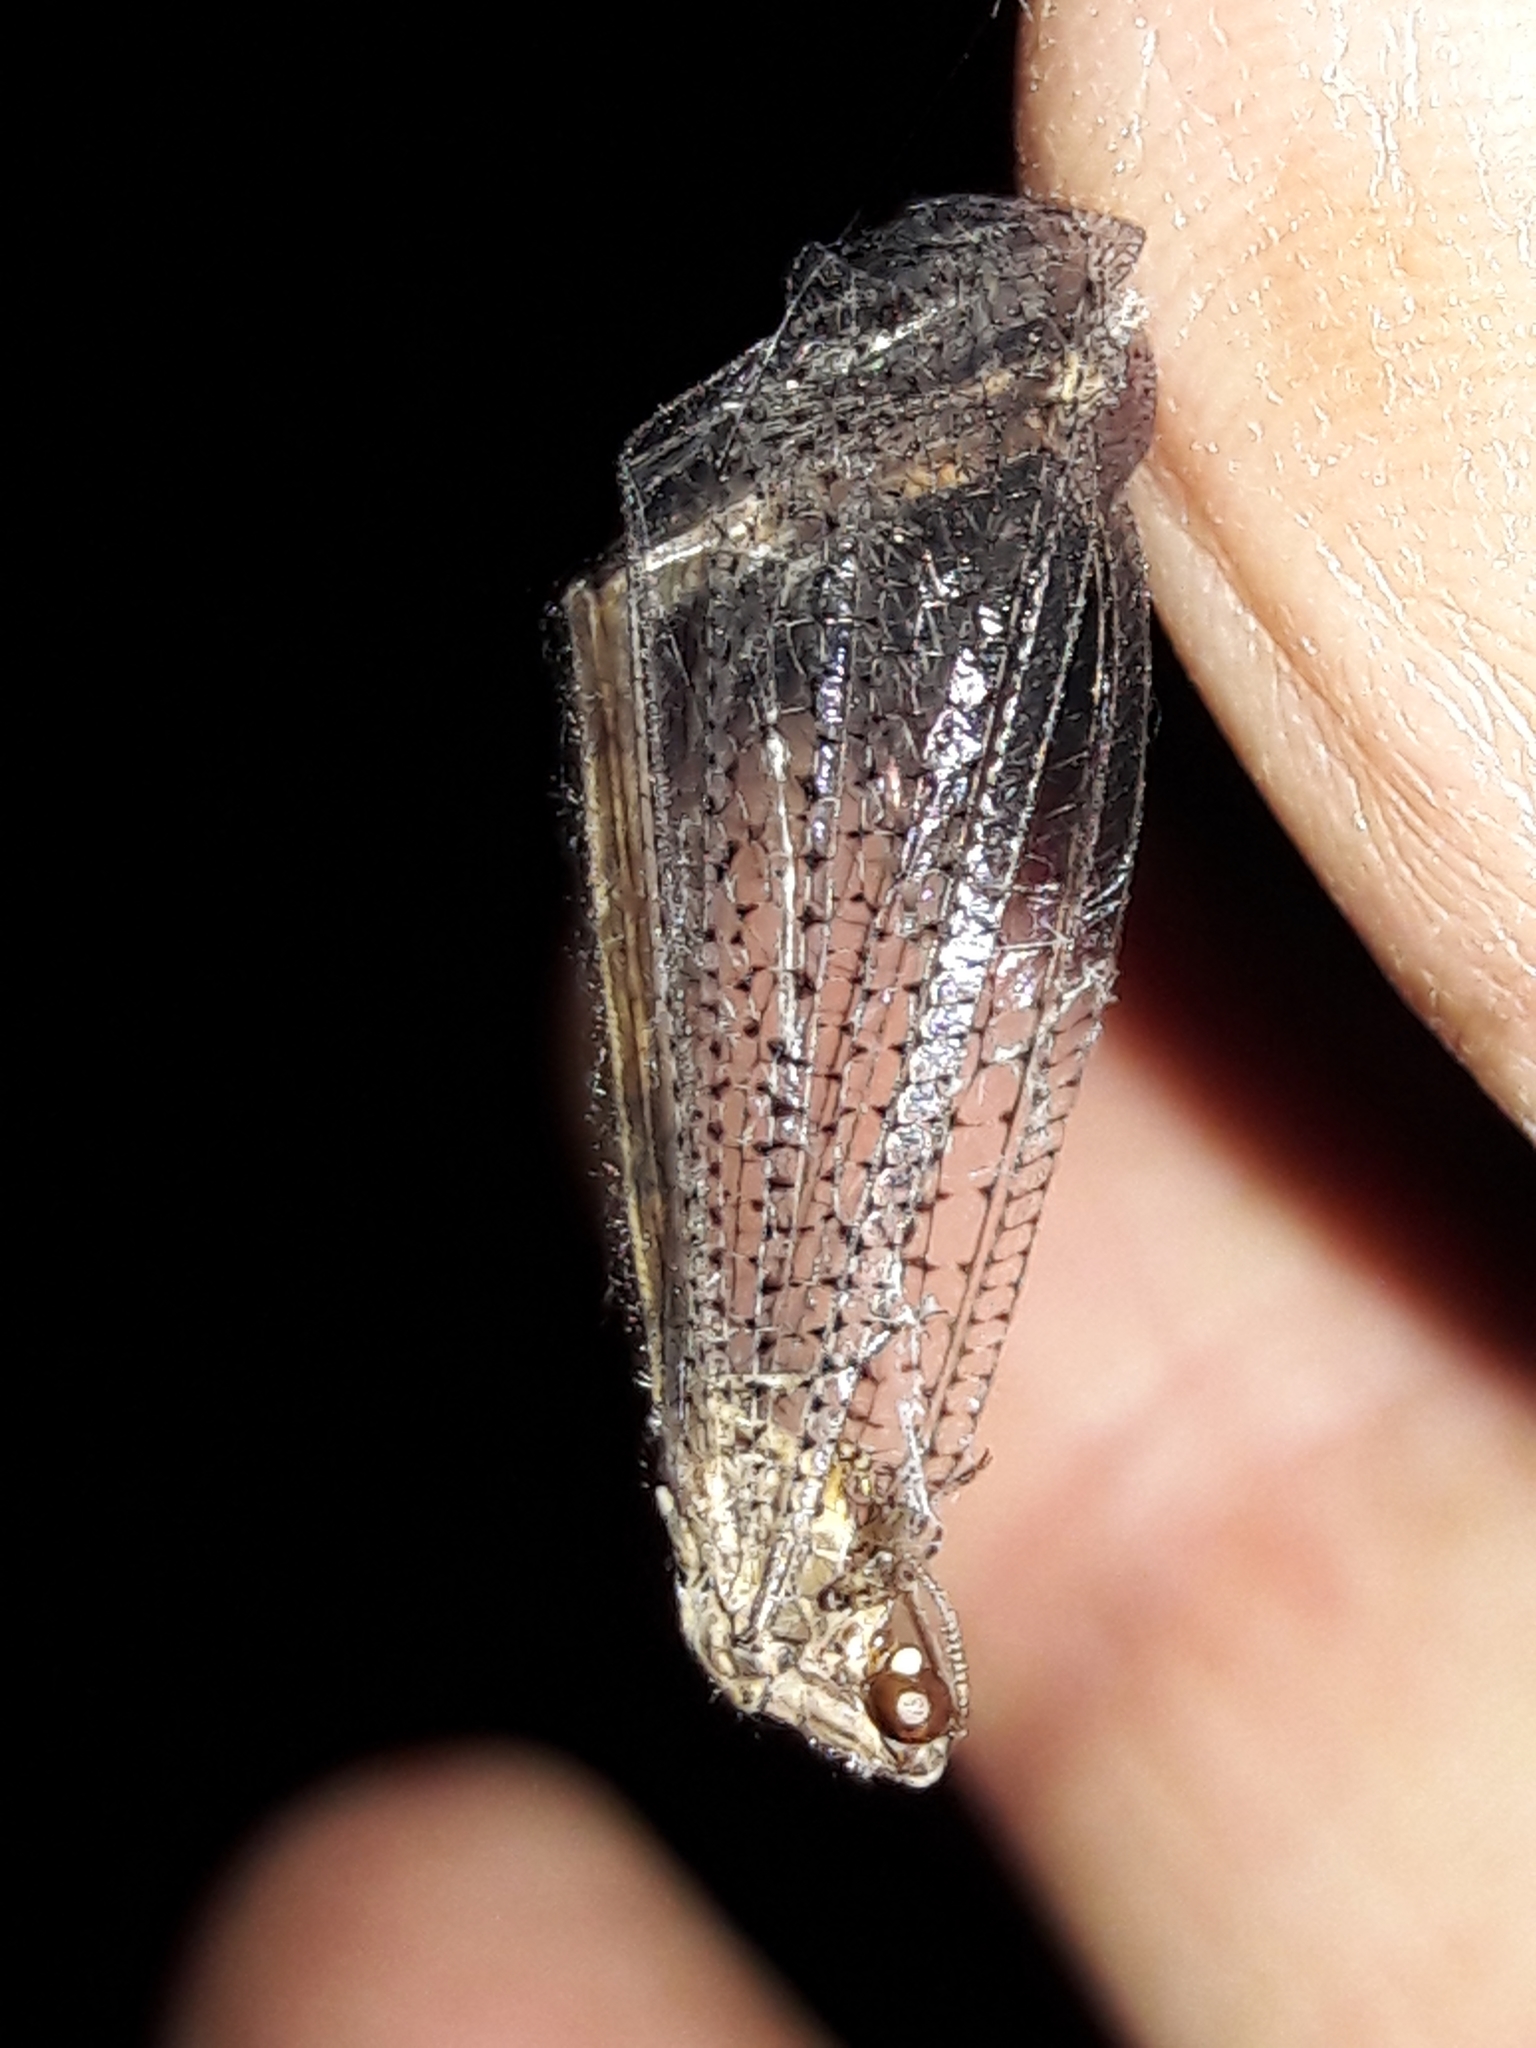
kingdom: Animalia
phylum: Arthropoda
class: Insecta
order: Neuroptera
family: Myrmeleontidae
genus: Argentoleon
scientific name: Argentoleon irrigatus
